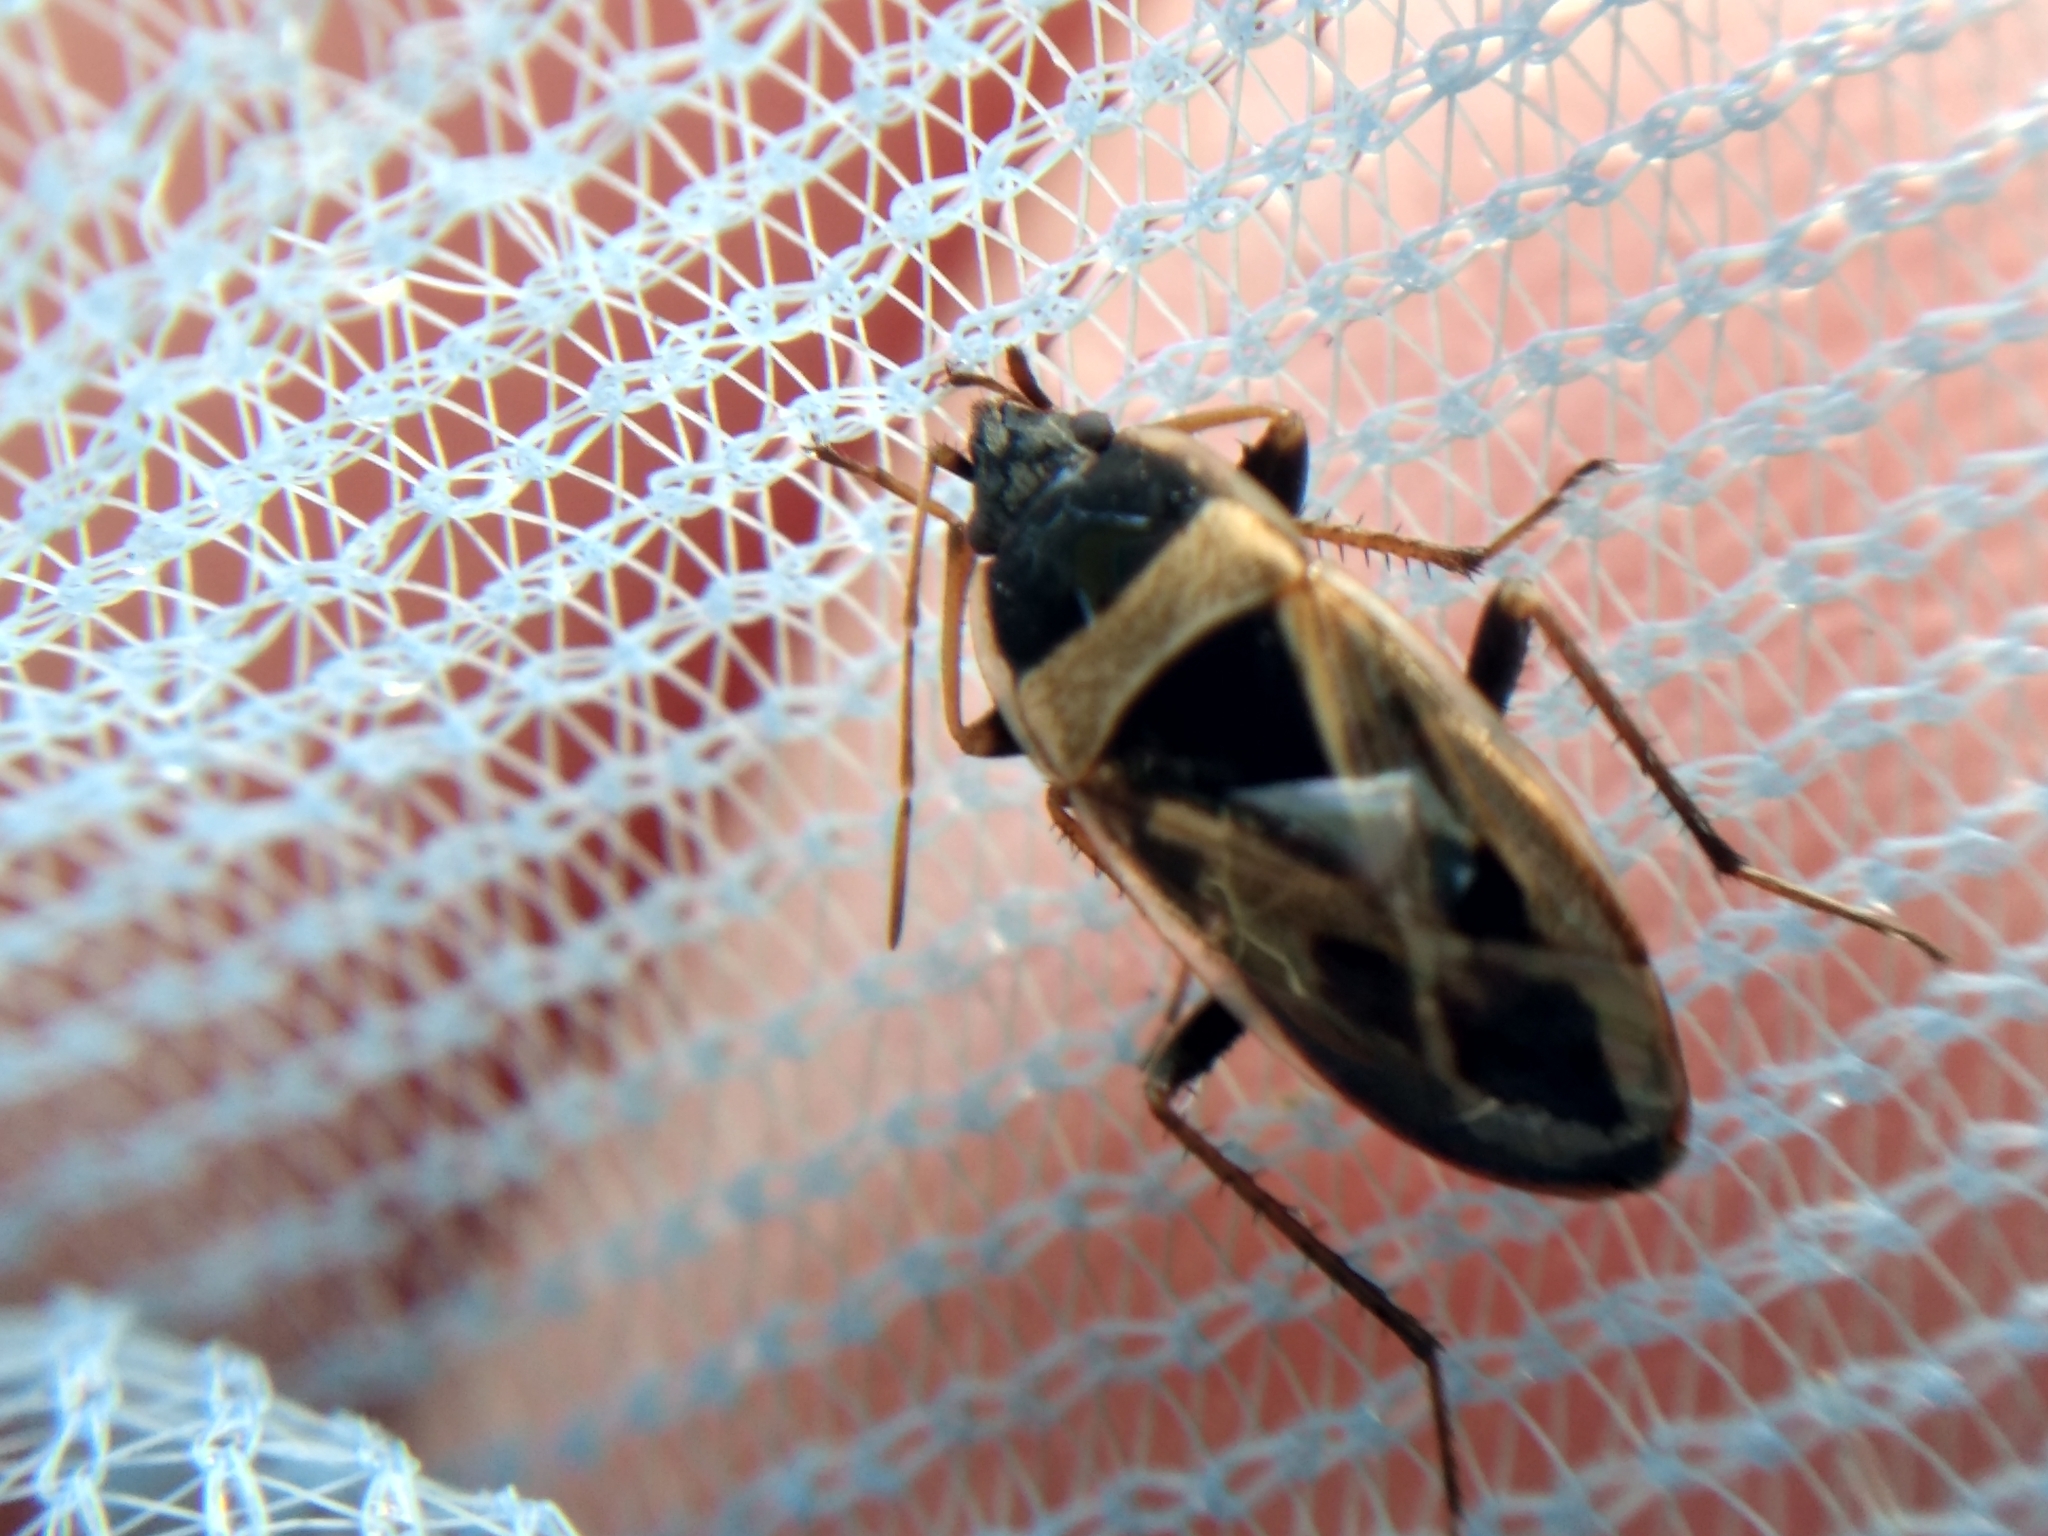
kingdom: Animalia
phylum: Arthropoda
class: Insecta
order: Hemiptera
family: Rhyparochromidae
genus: Xanthochilus
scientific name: Xanthochilus saturnius
